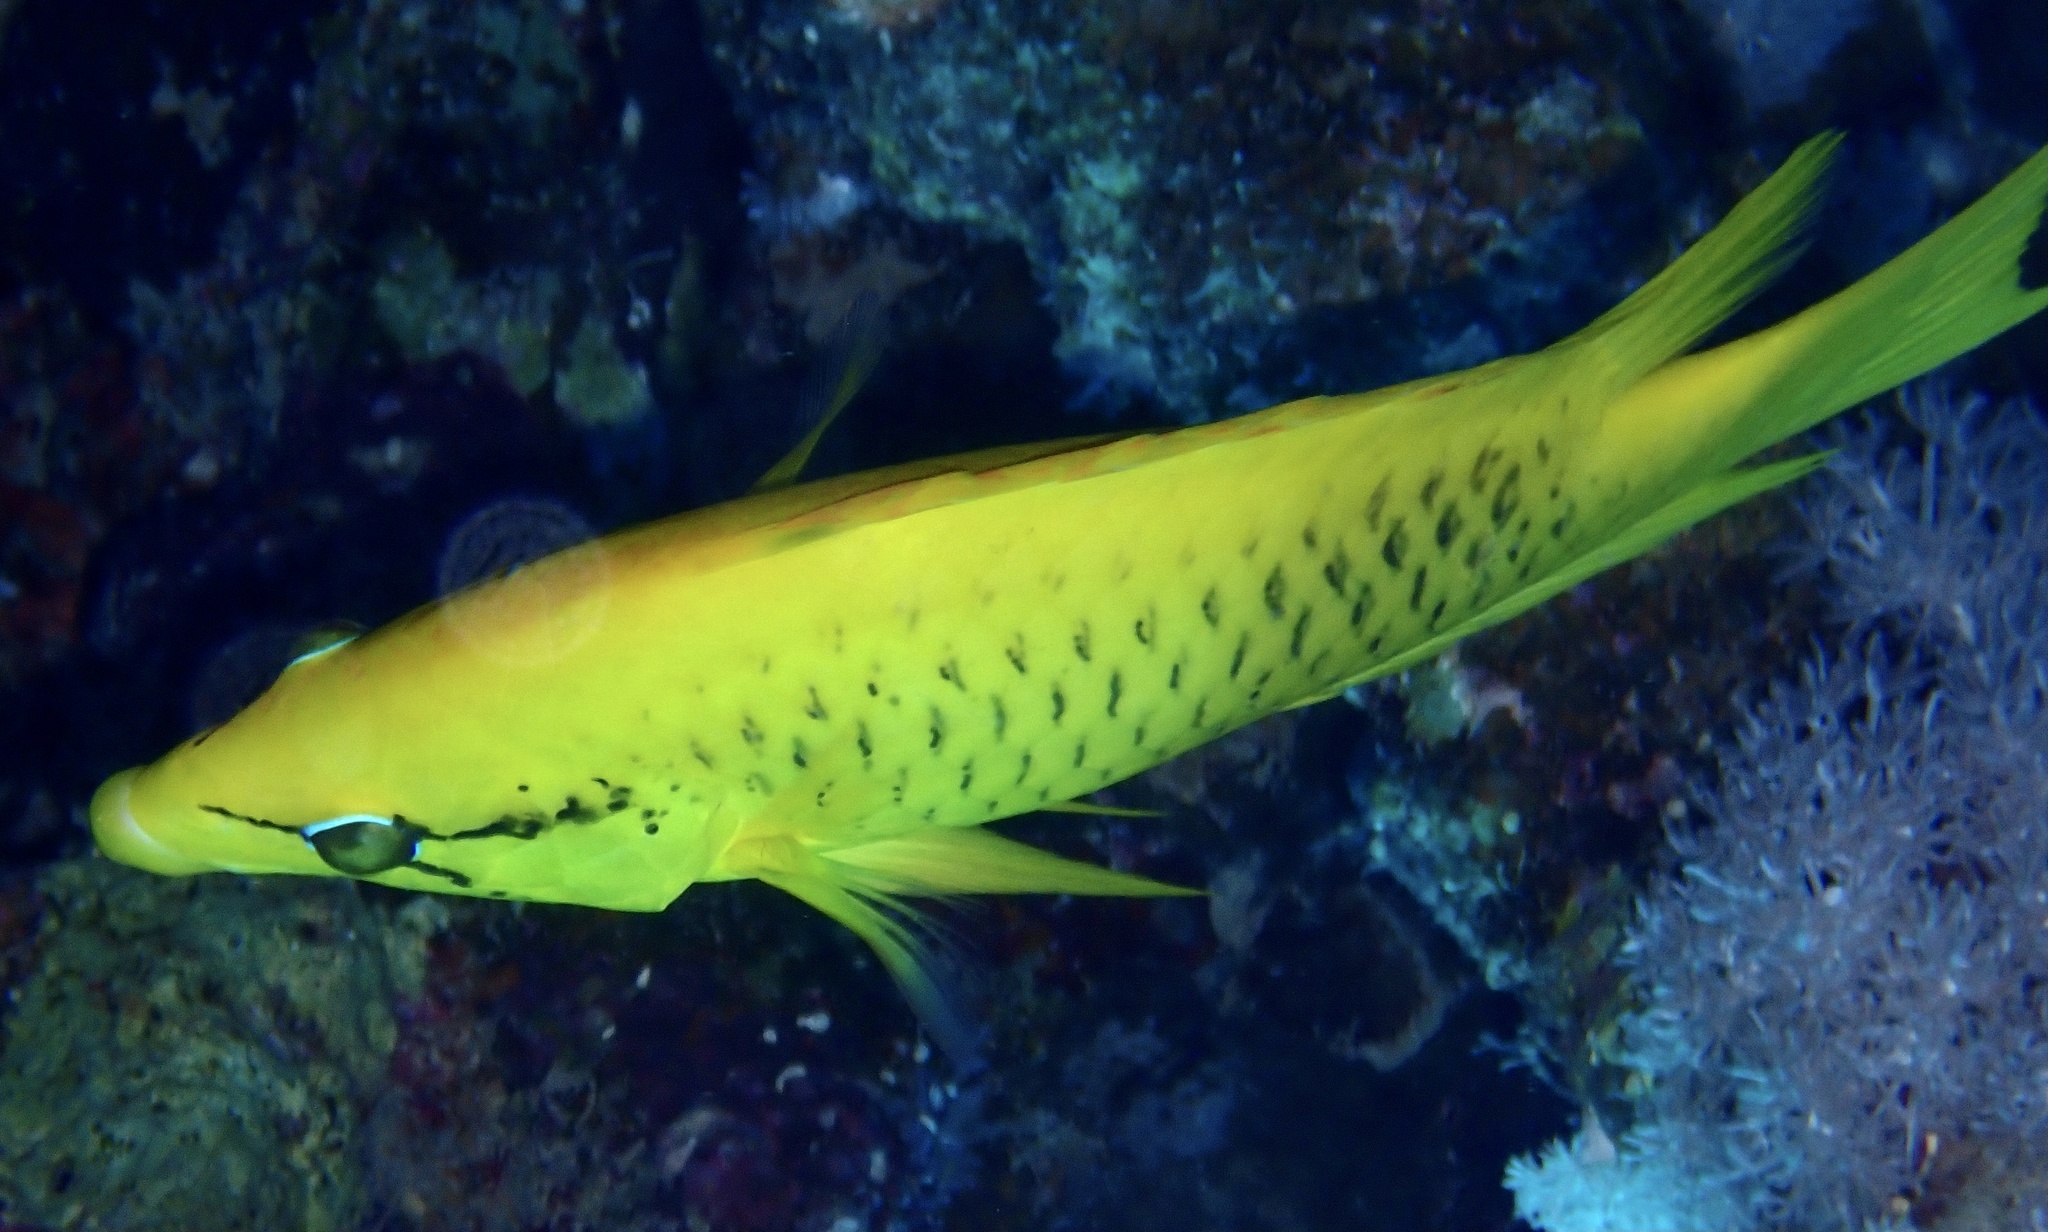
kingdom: Animalia
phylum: Chordata
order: Perciformes
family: Labridae
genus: Epibulus
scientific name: Epibulus insidiator
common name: Slingjaw wrasse
